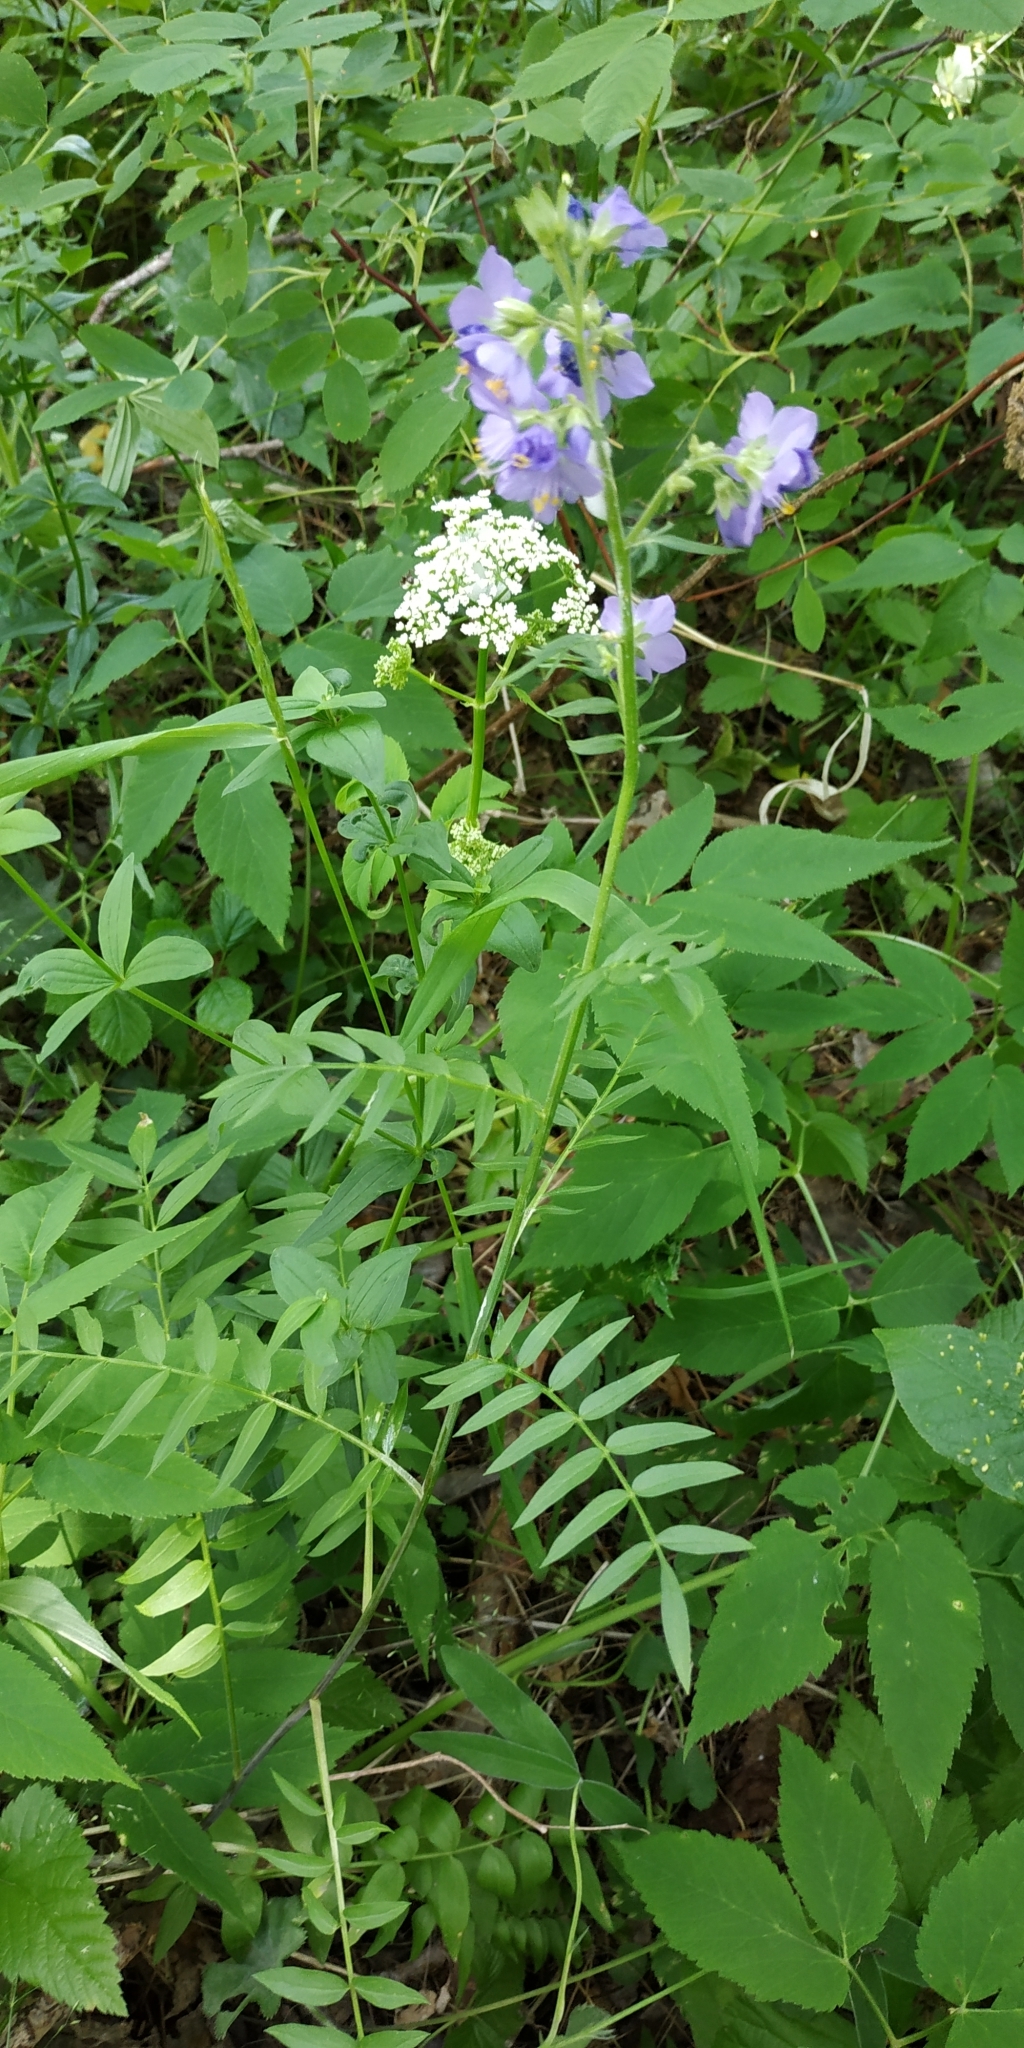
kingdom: Plantae
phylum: Tracheophyta
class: Magnoliopsida
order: Ericales
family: Polemoniaceae
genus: Polemonium
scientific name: Polemonium caeruleum
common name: Jacob's-ladder
